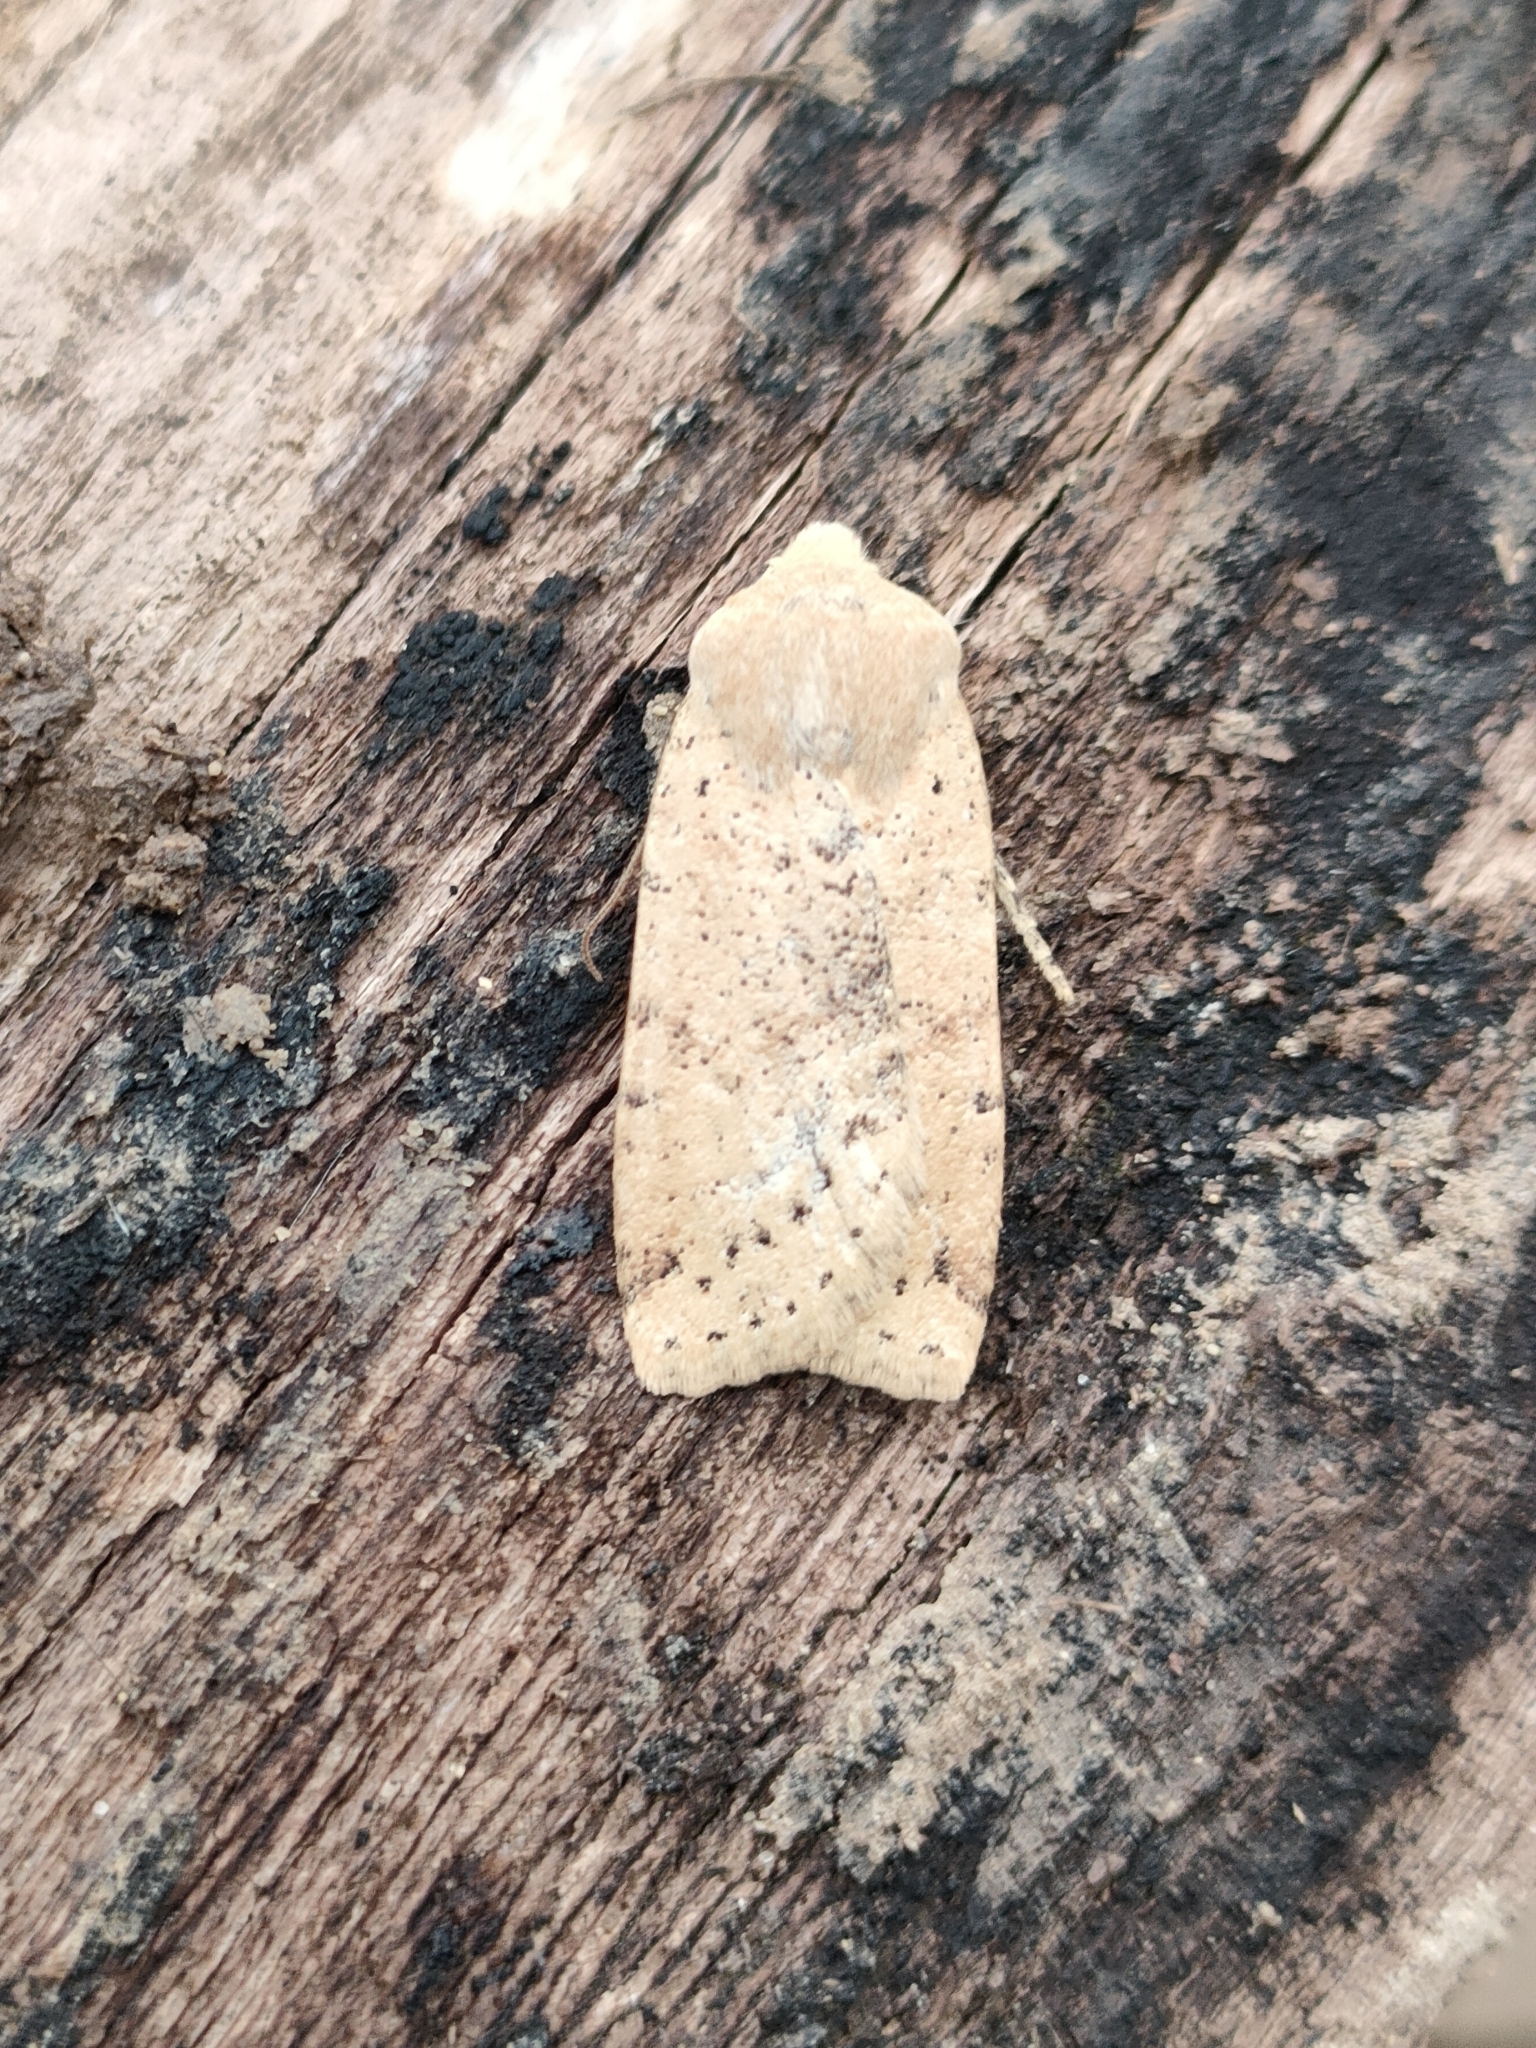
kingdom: Animalia
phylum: Arthropoda
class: Insecta
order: Lepidoptera
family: Noctuidae
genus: Conistra
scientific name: Conistra daubei
